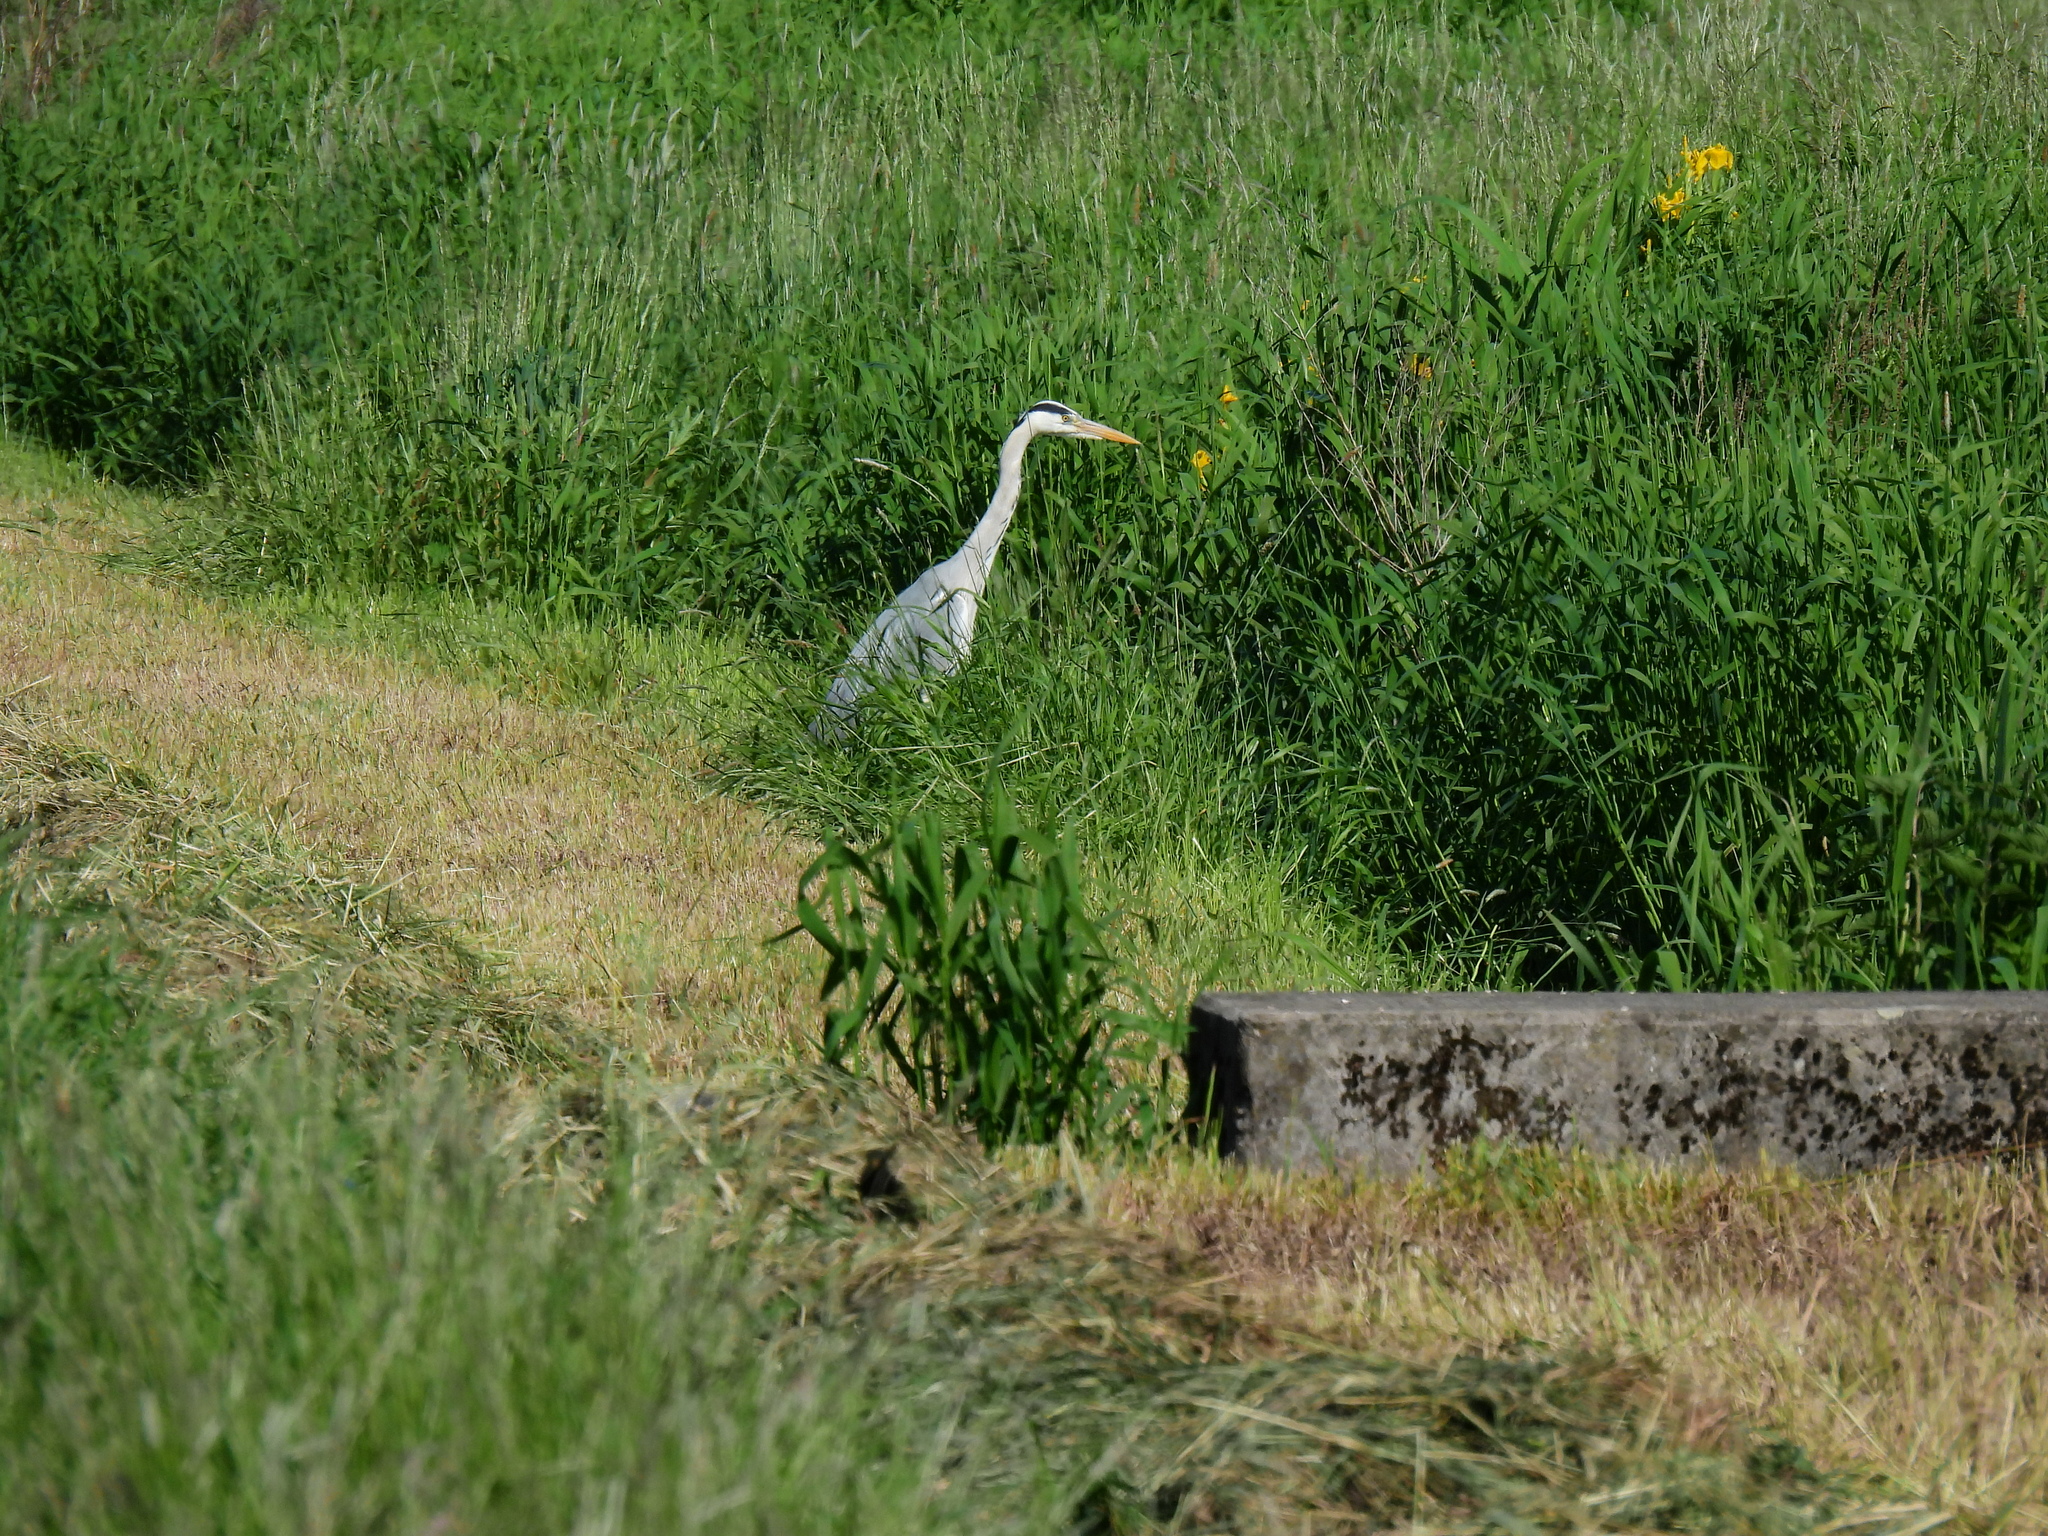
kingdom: Animalia
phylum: Chordata
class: Aves
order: Pelecaniformes
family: Ardeidae
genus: Ardea
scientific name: Ardea cinerea
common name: Grey heron
